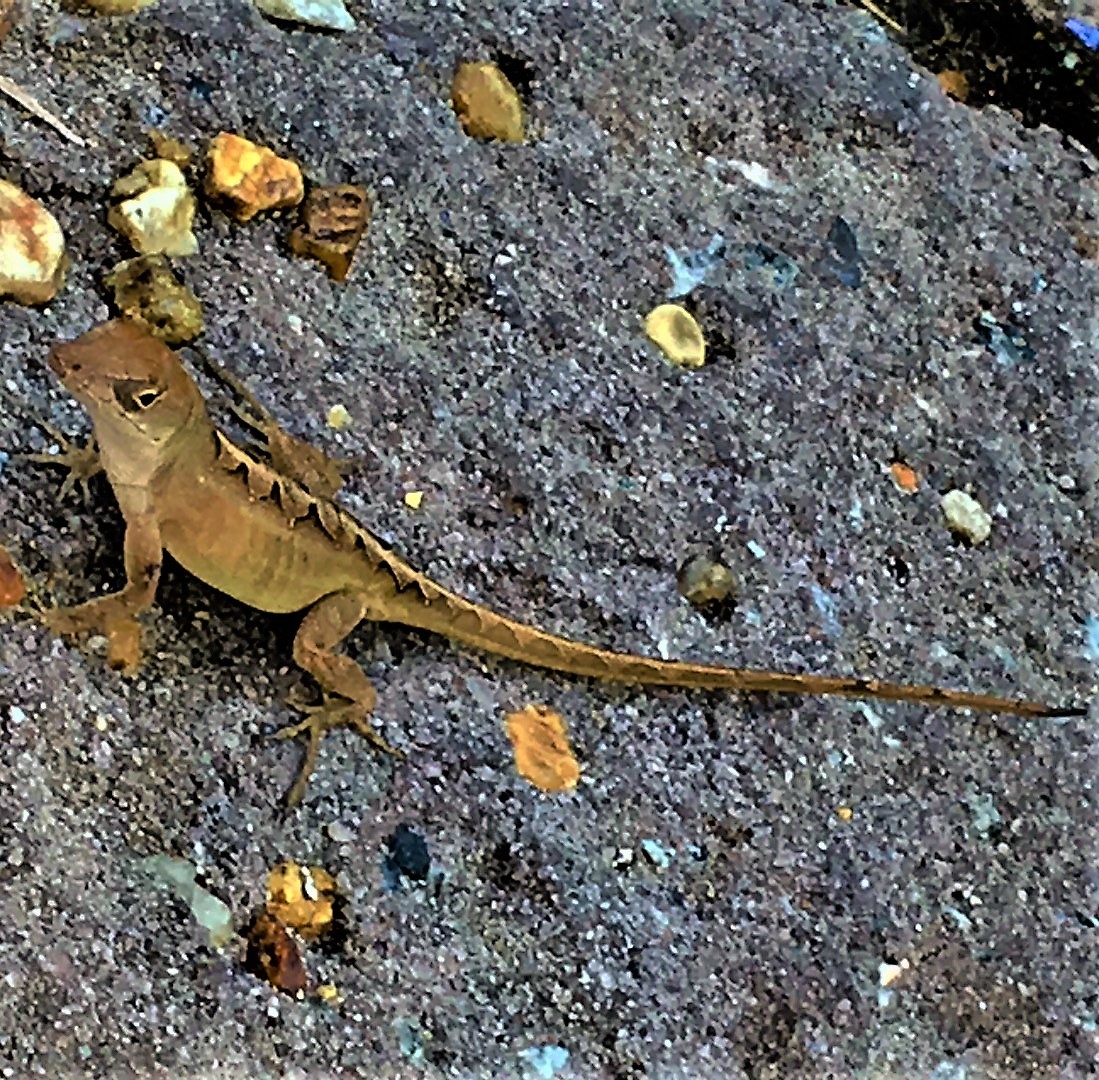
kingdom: Animalia
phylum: Chordata
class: Squamata
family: Dactyloidae
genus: Anolis
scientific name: Anolis sagrei
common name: Brown anole
